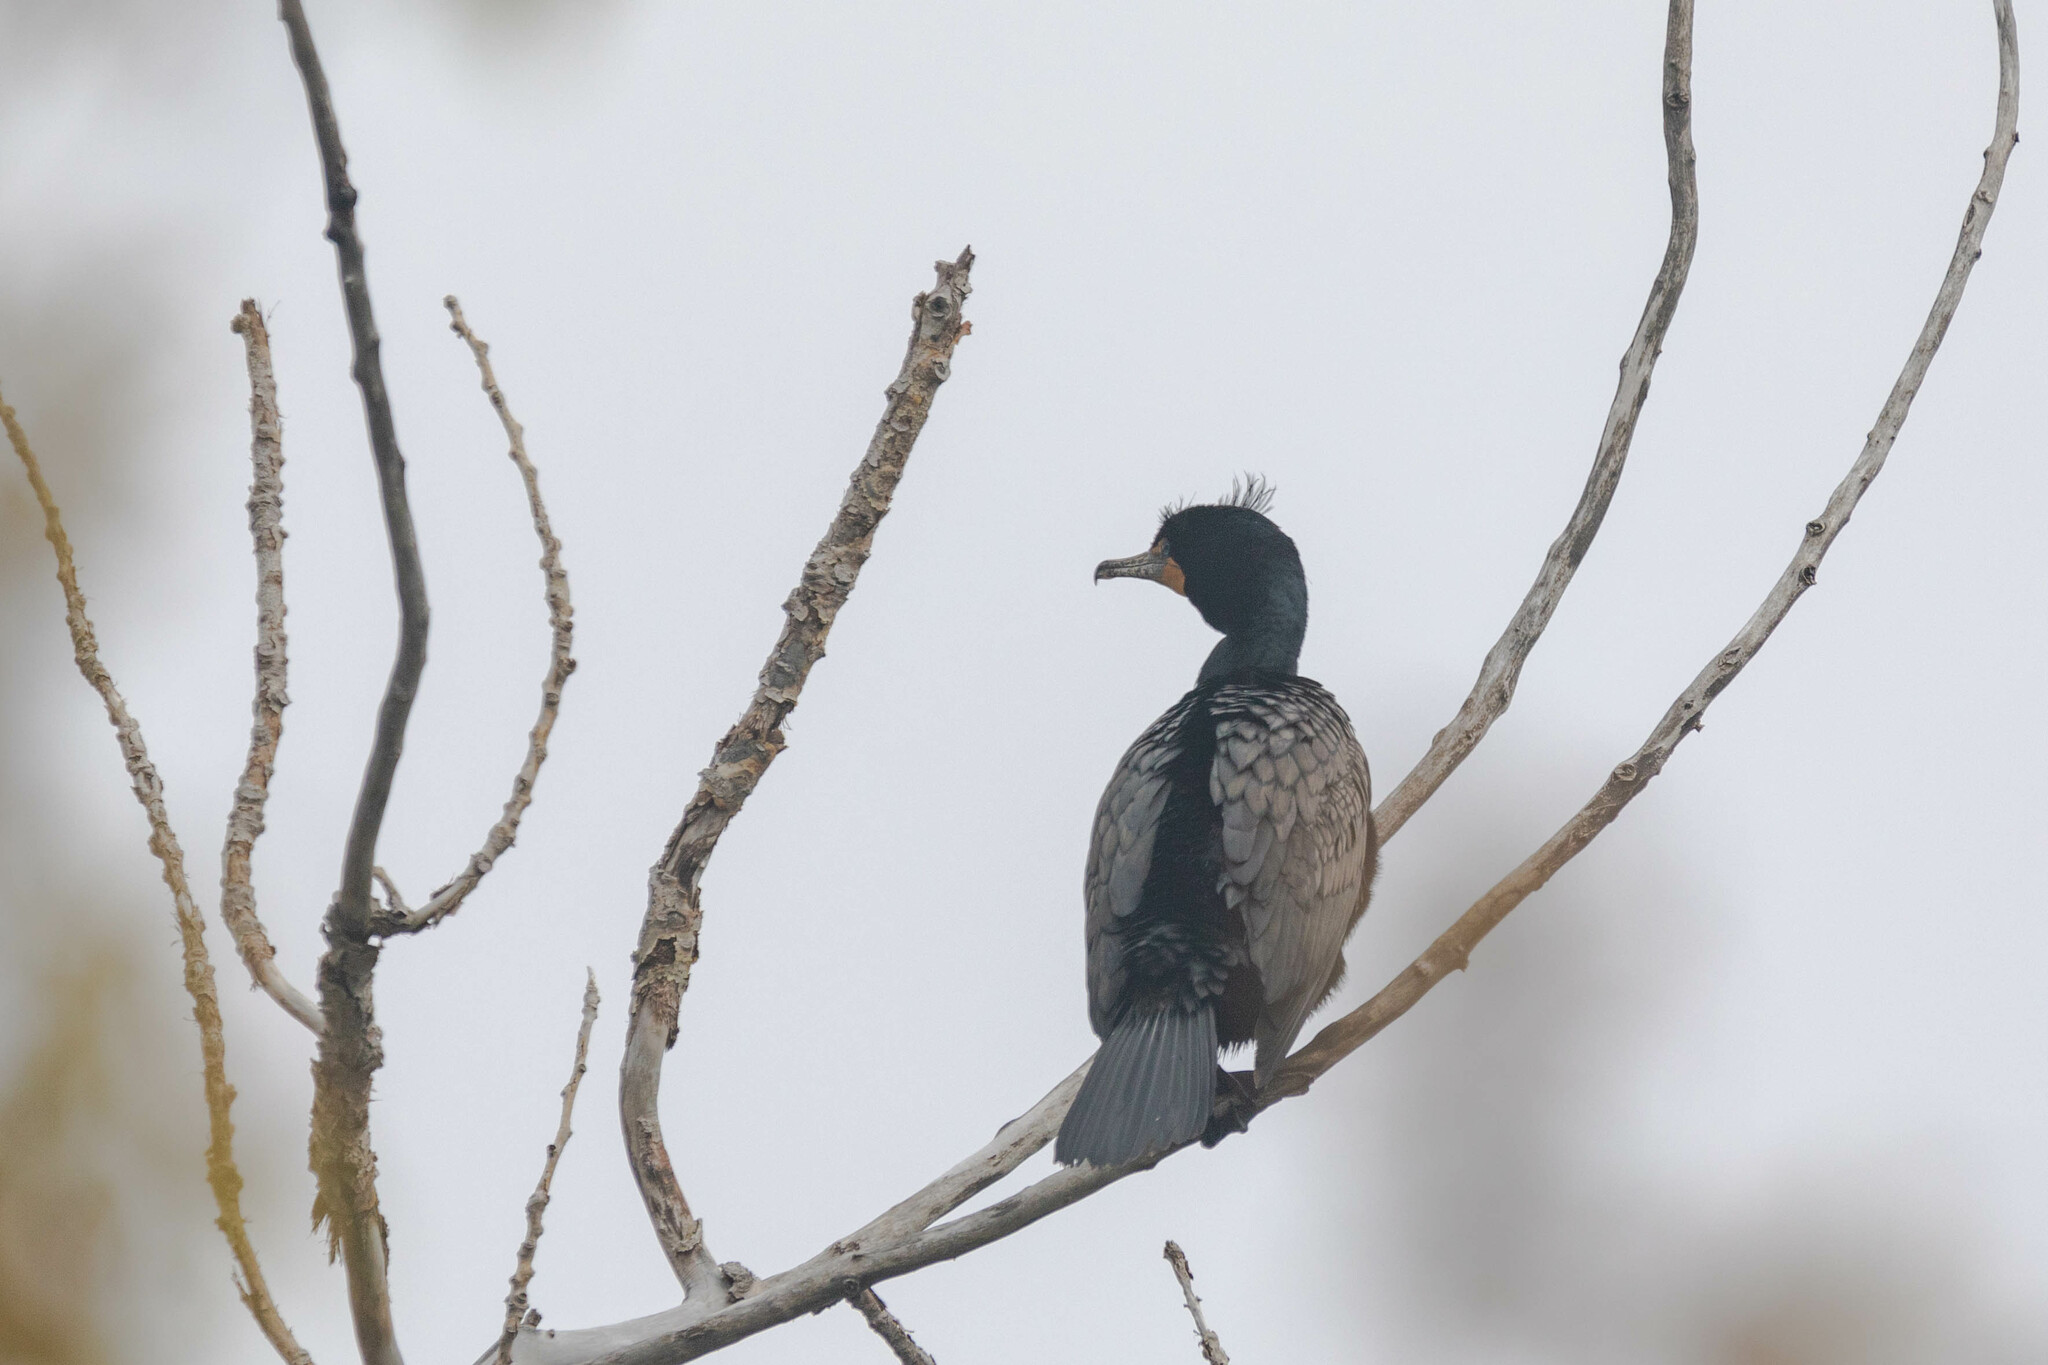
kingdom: Animalia
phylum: Chordata
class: Aves
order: Suliformes
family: Phalacrocoracidae
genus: Phalacrocorax
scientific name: Phalacrocorax auritus
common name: Double-crested cormorant
